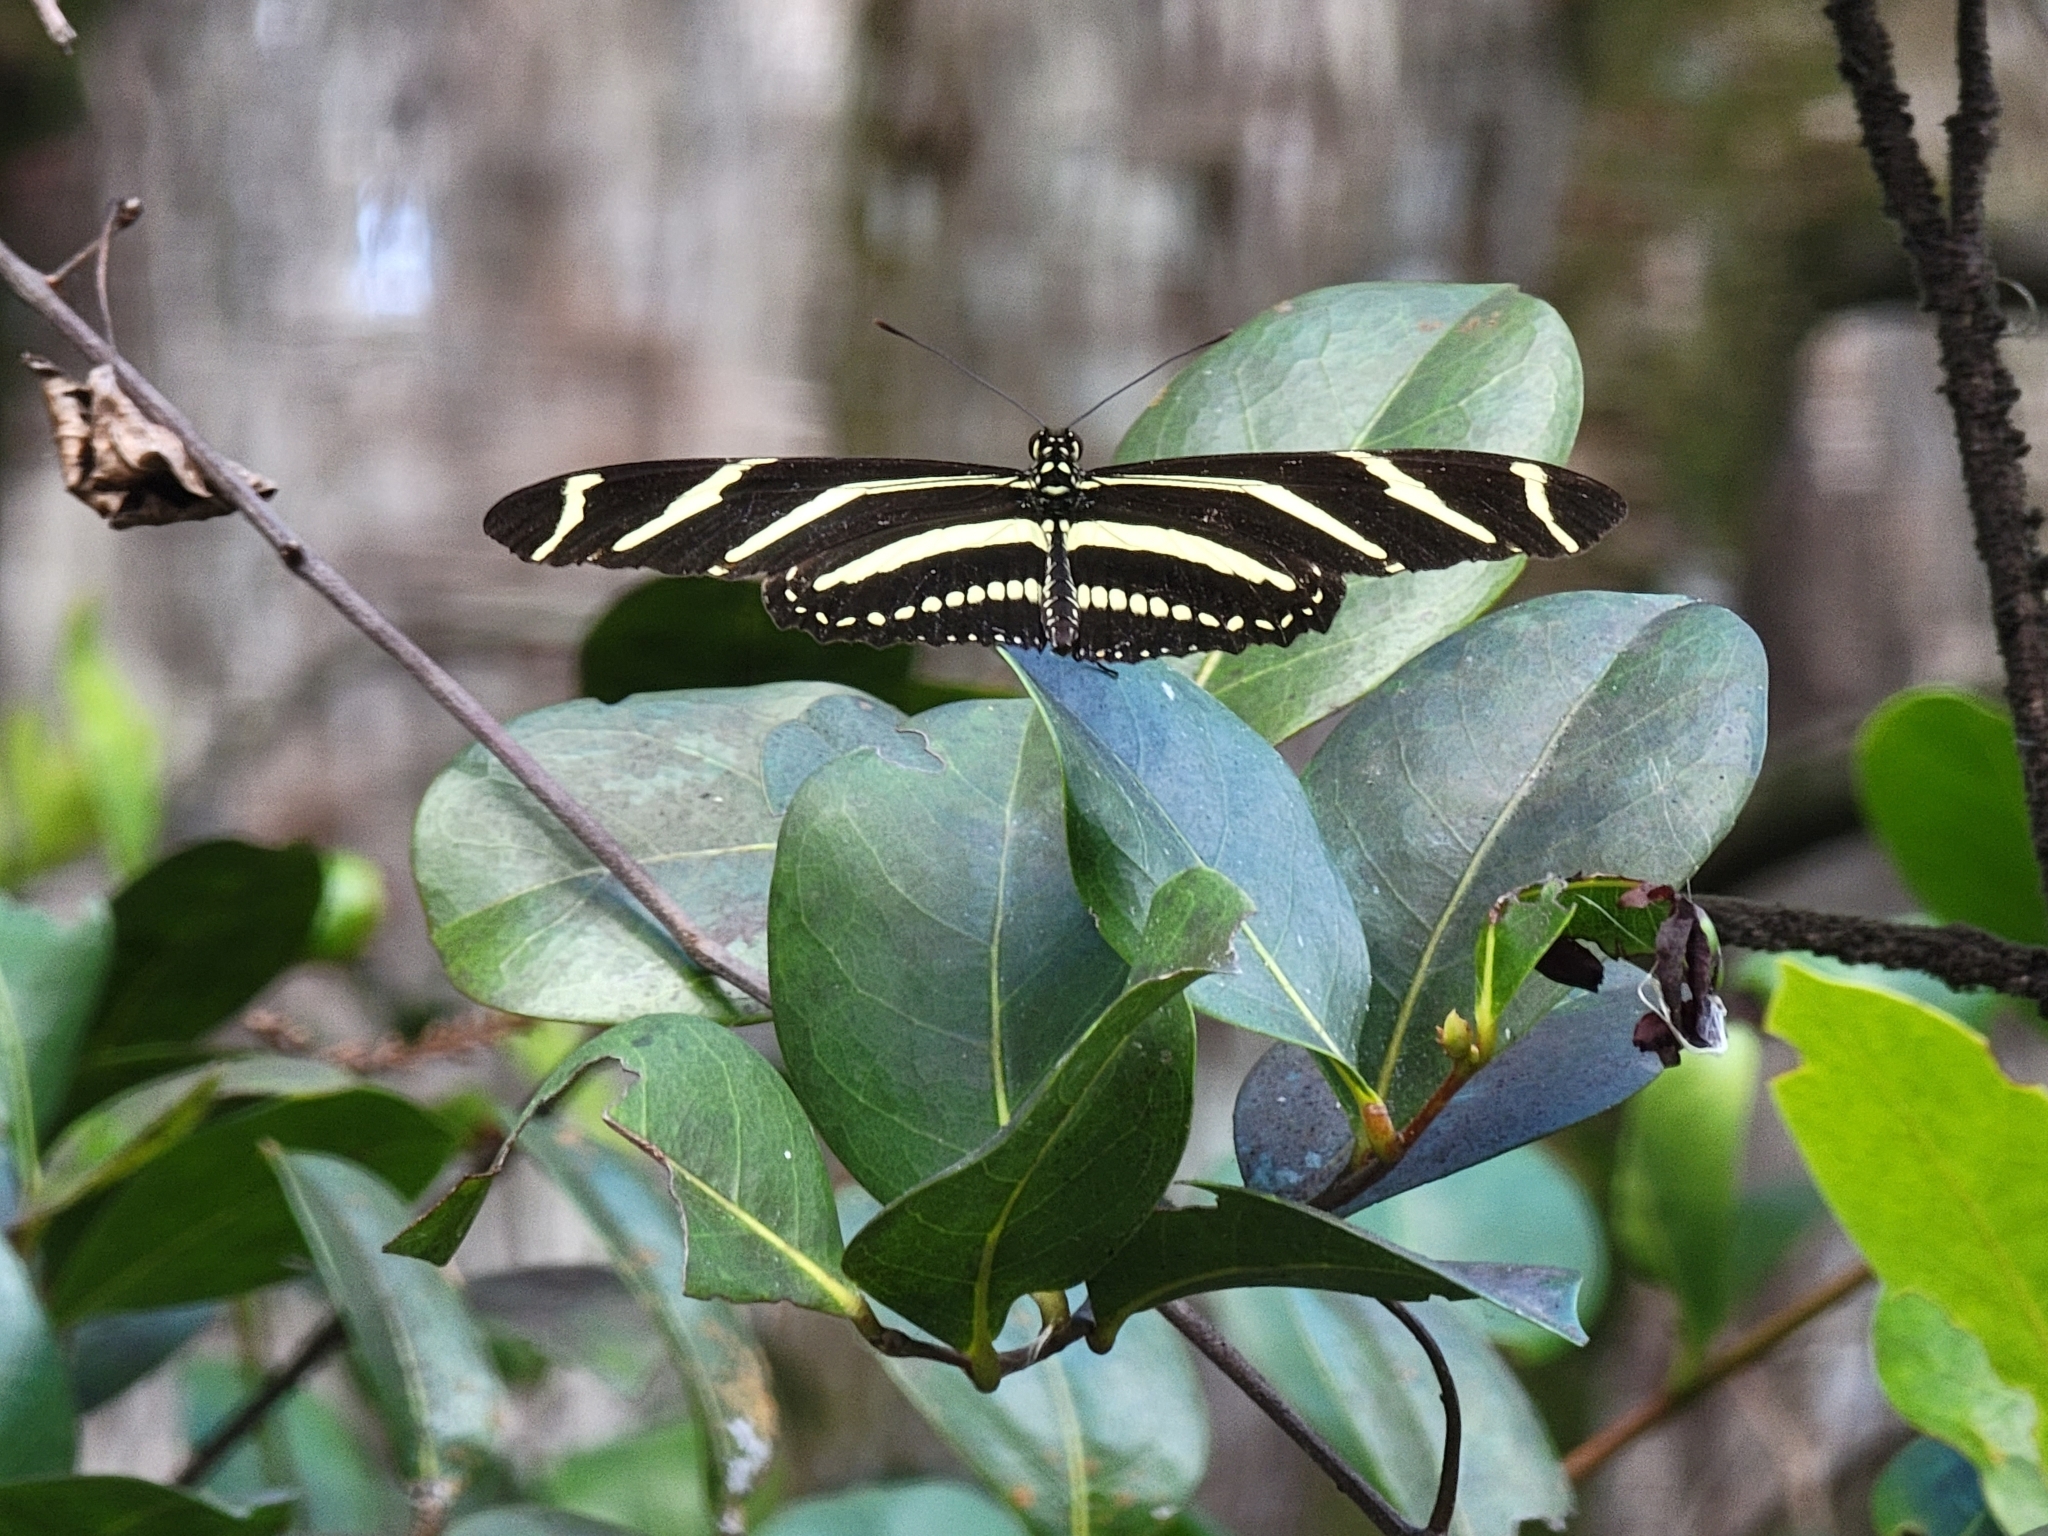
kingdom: Animalia
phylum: Arthropoda
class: Insecta
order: Lepidoptera
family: Nymphalidae
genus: Heliconius
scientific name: Heliconius charithonia
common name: Zebra long wing
